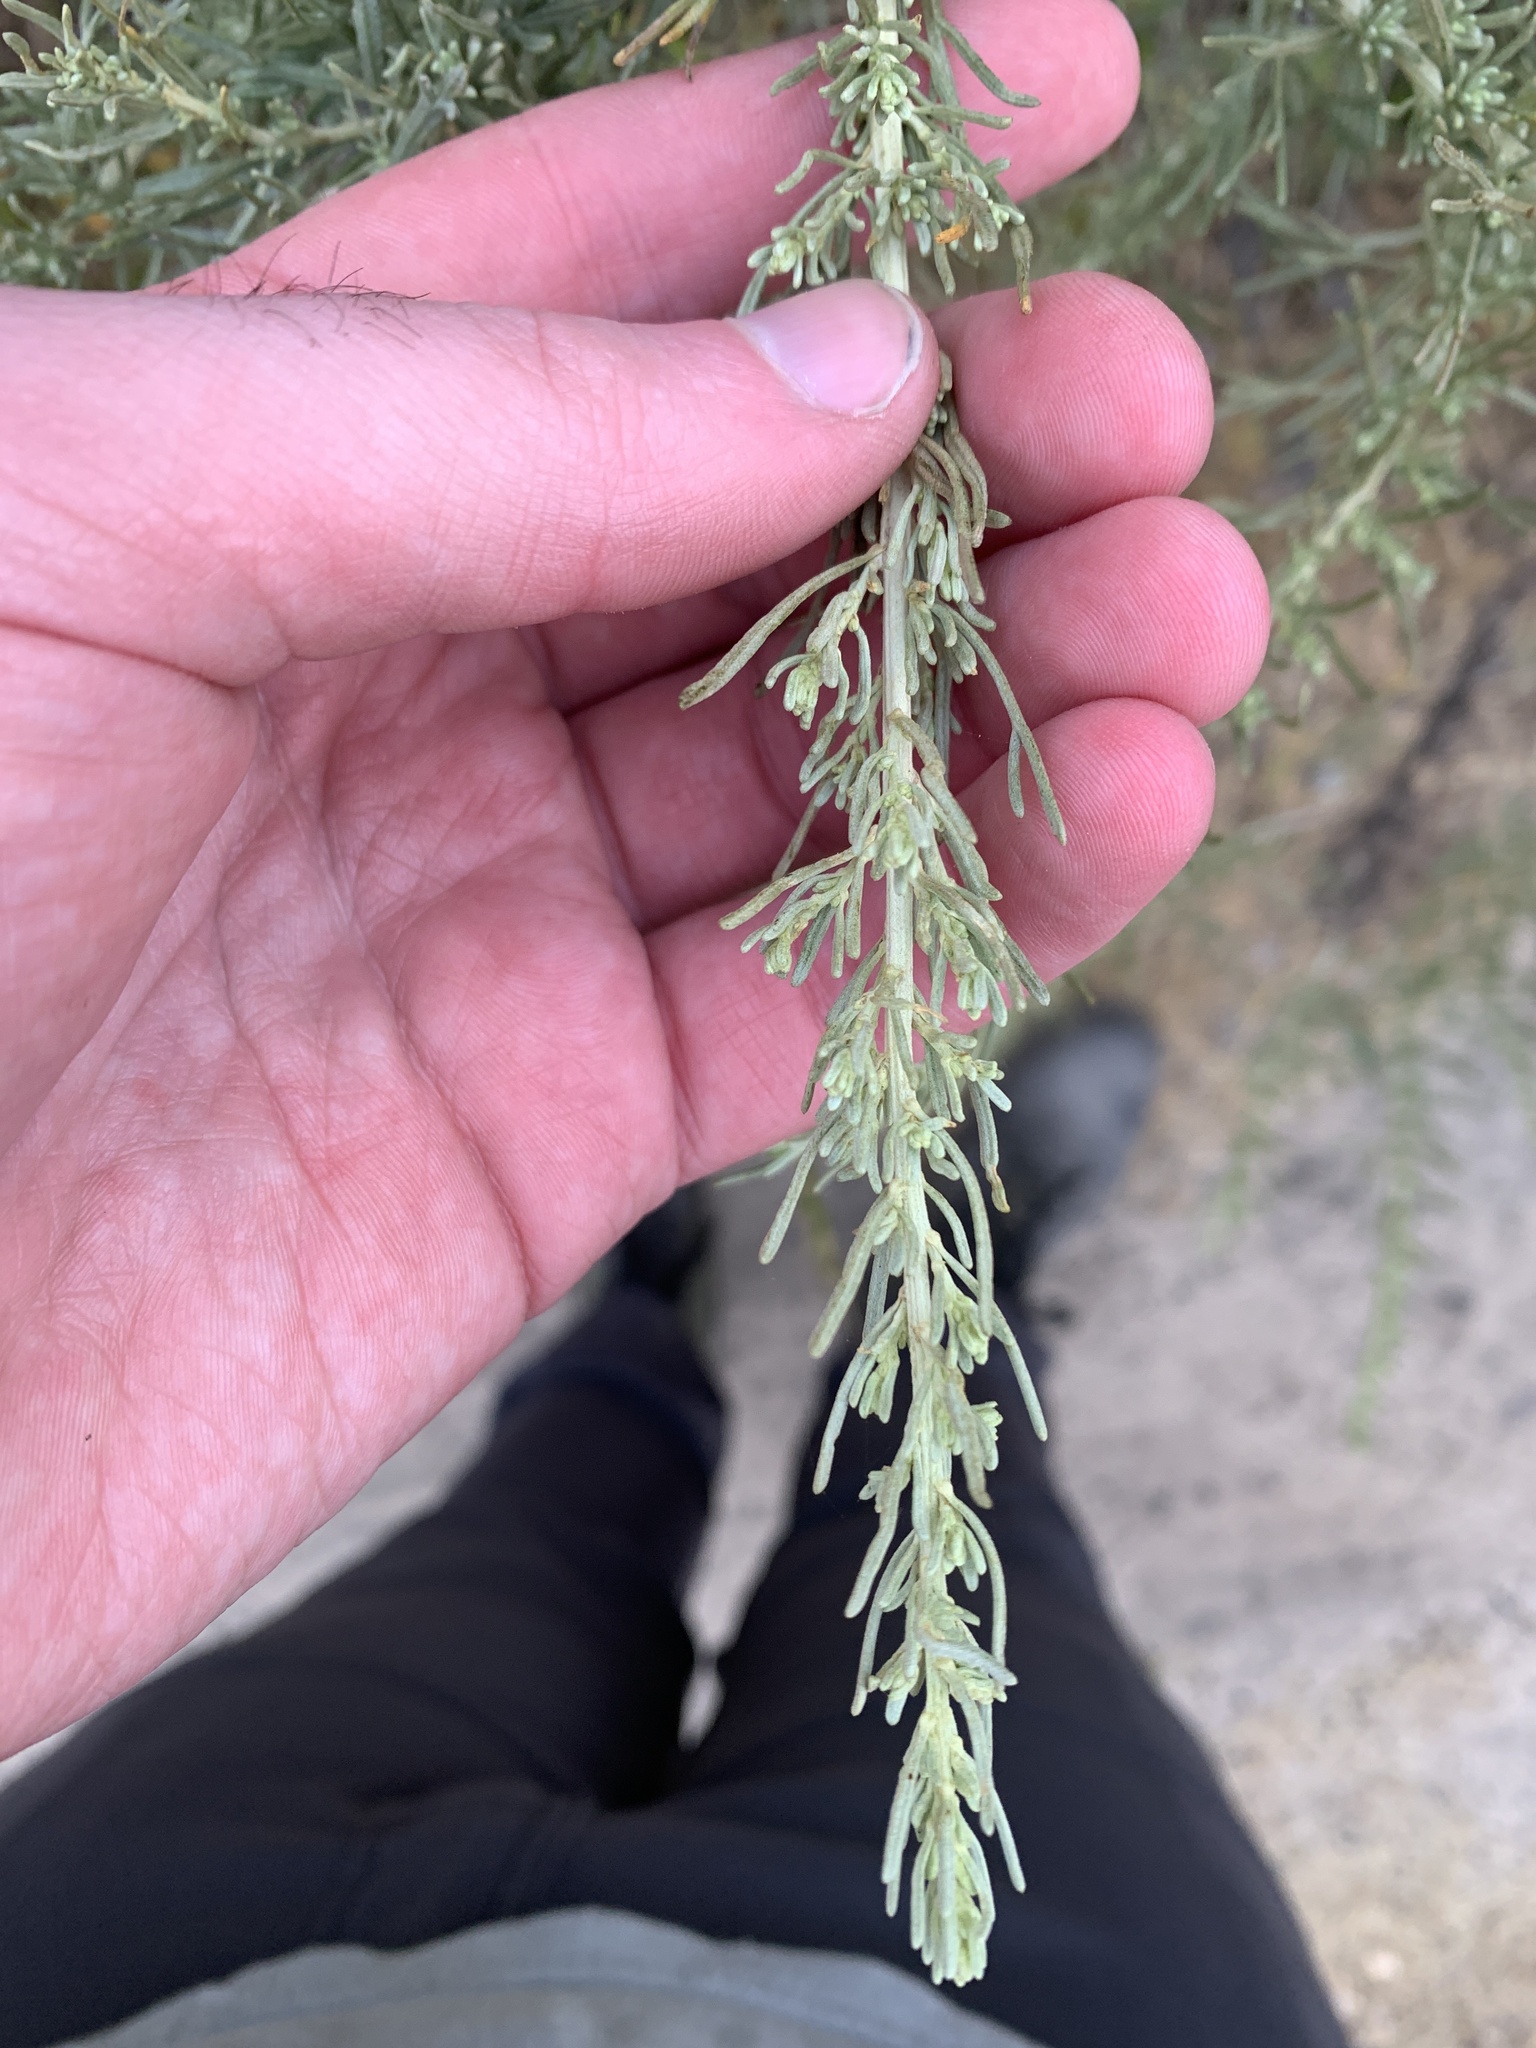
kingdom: Plantae
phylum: Tracheophyta
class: Magnoliopsida
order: Asterales
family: Asteraceae
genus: Artemisia
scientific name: Artemisia californica
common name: California sagebrush
